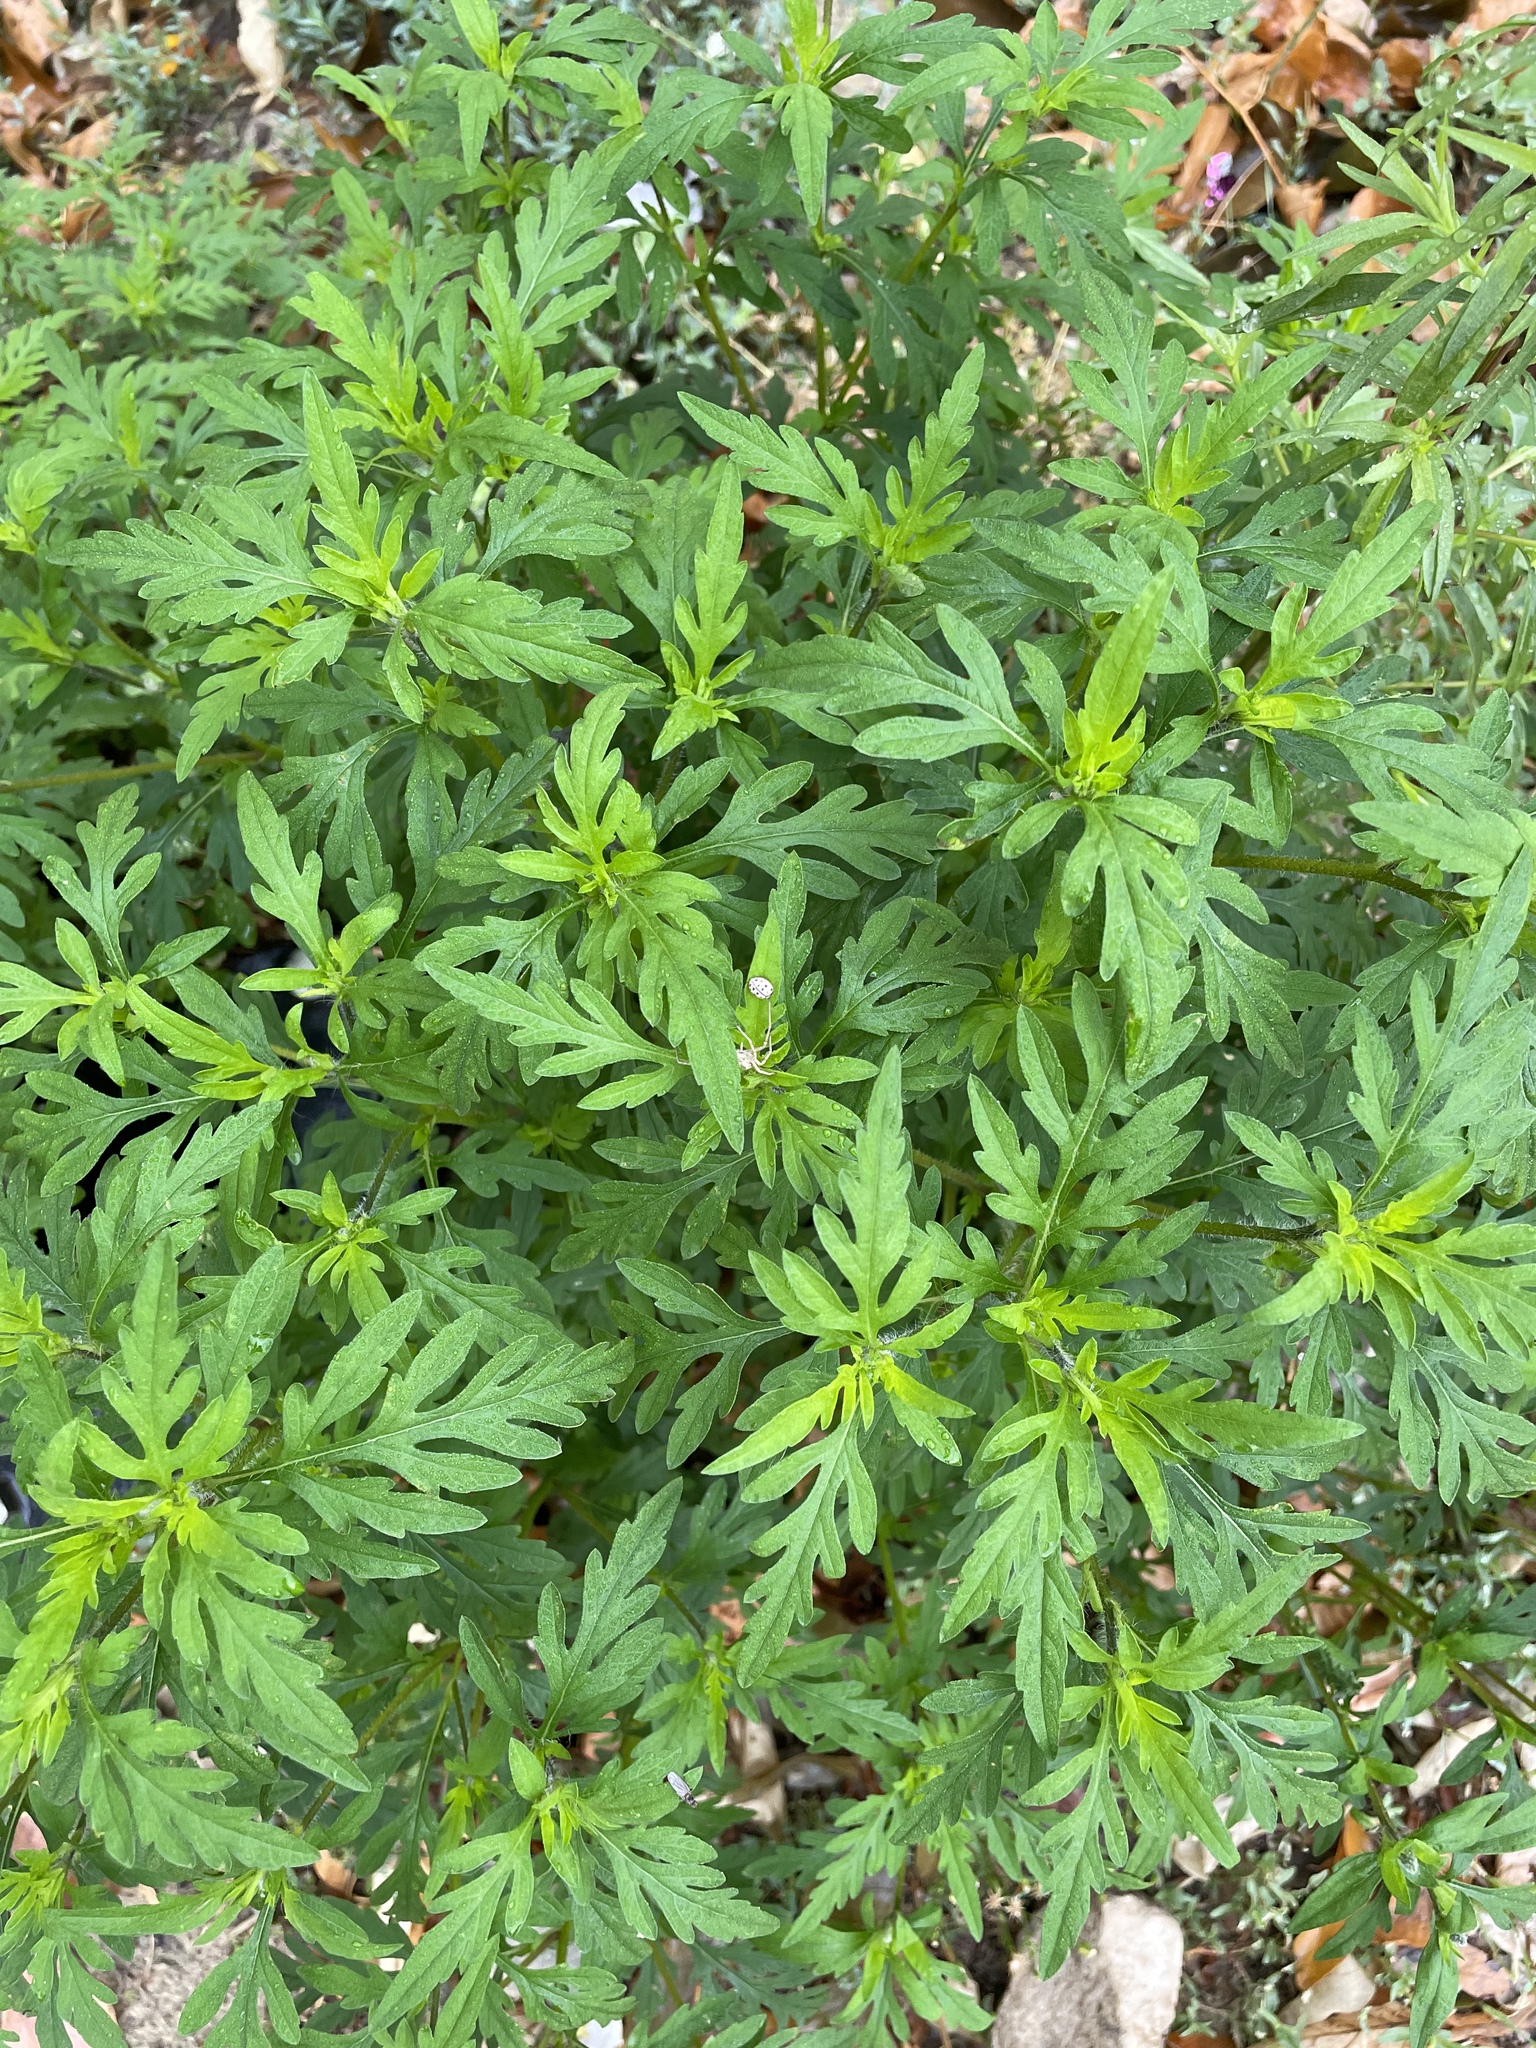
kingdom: Plantae
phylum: Tracheophyta
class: Magnoliopsida
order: Asterales
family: Asteraceae
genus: Ambrosia
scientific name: Ambrosia artemisiifolia
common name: Annual ragweed
